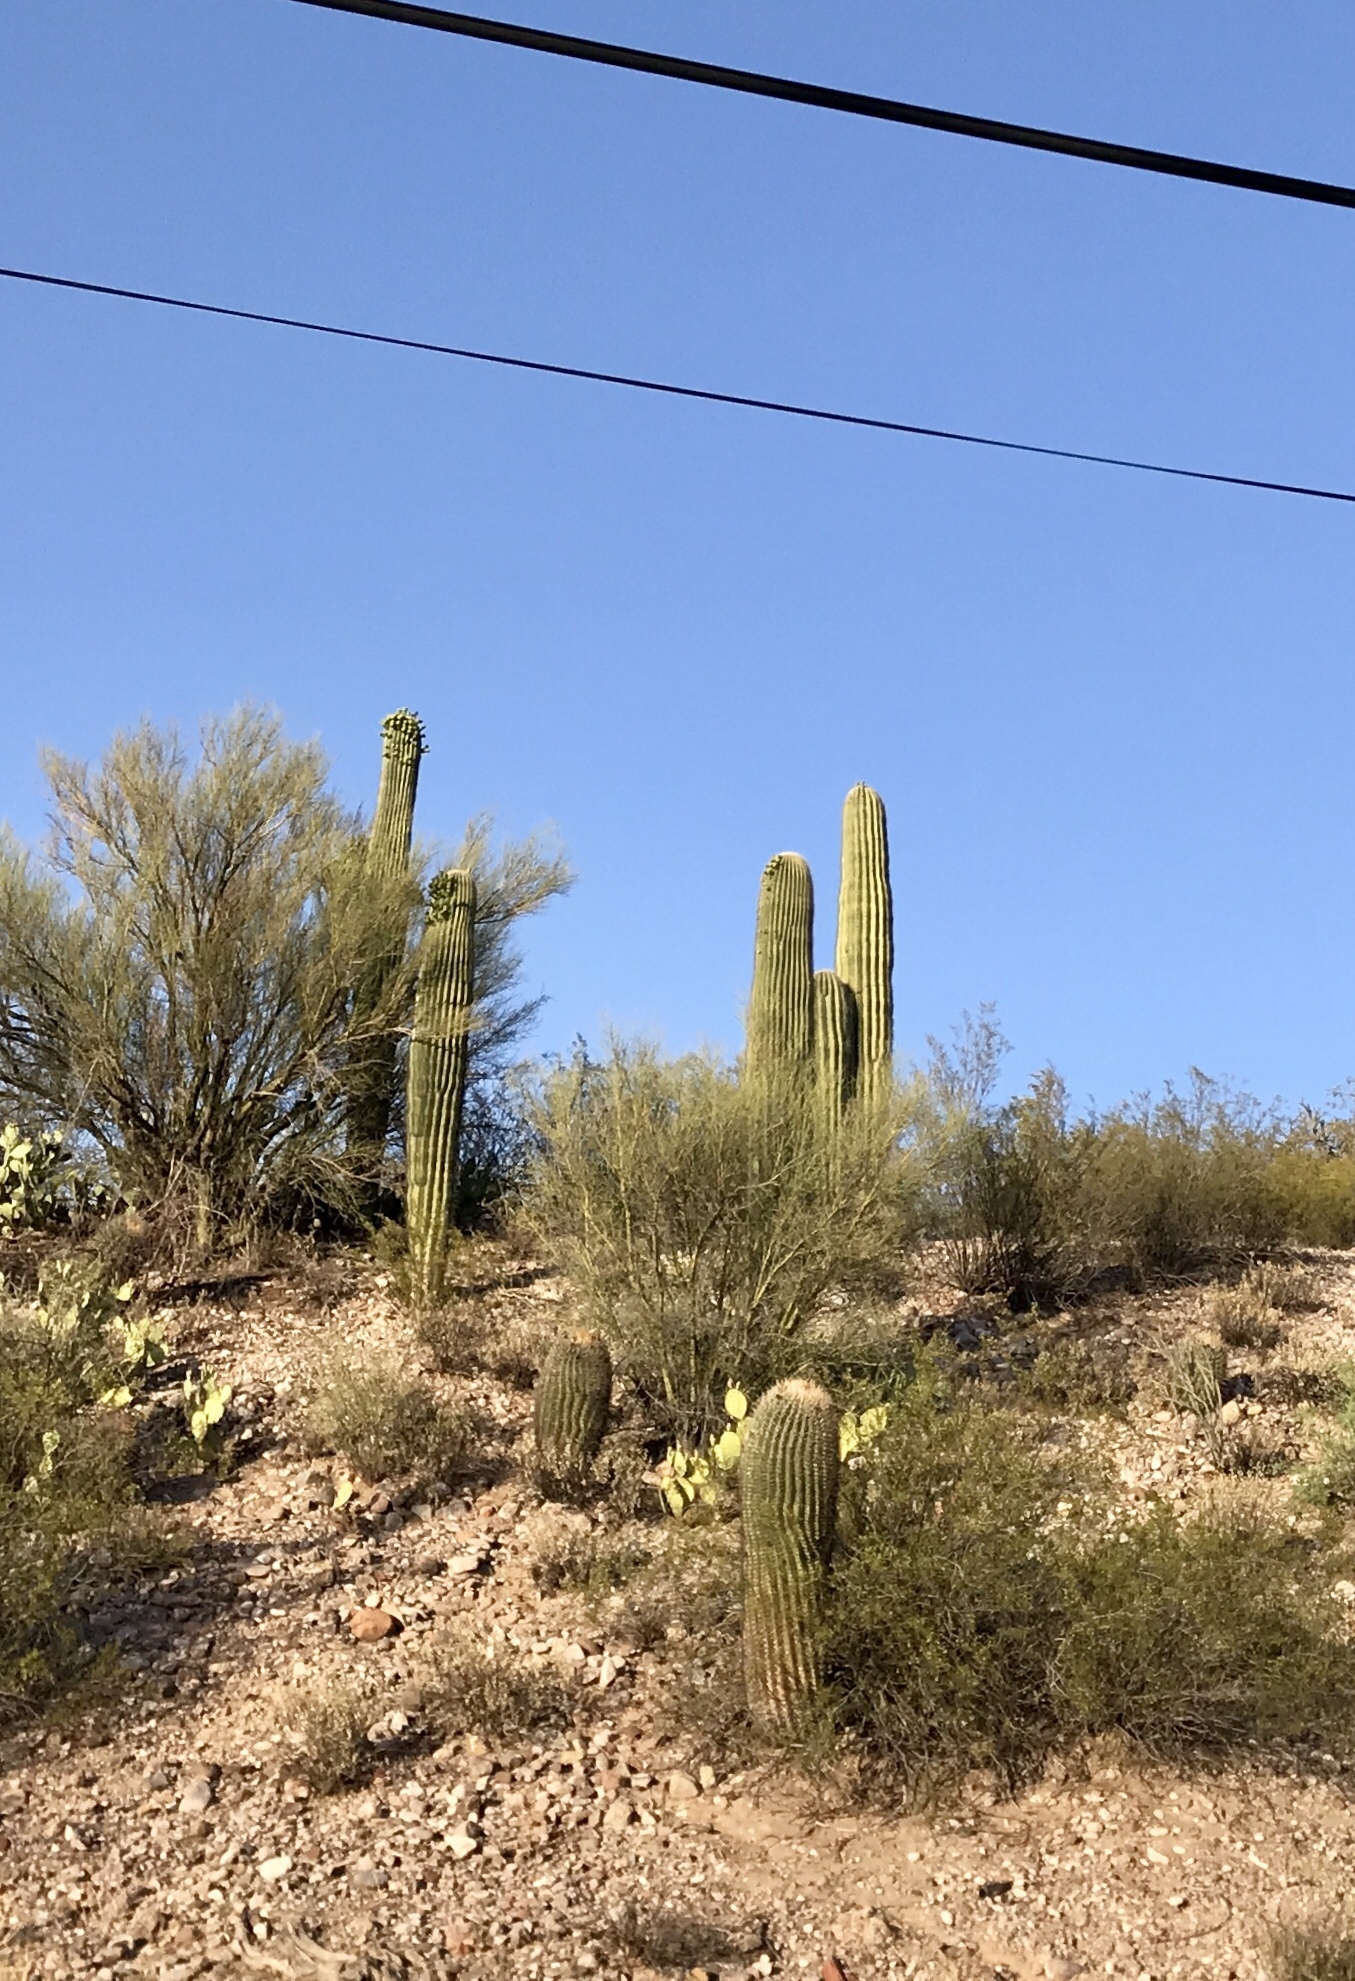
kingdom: Plantae
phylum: Tracheophyta
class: Magnoliopsida
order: Caryophyllales
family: Cactaceae
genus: Carnegiea
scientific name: Carnegiea gigantea
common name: Saguaro
